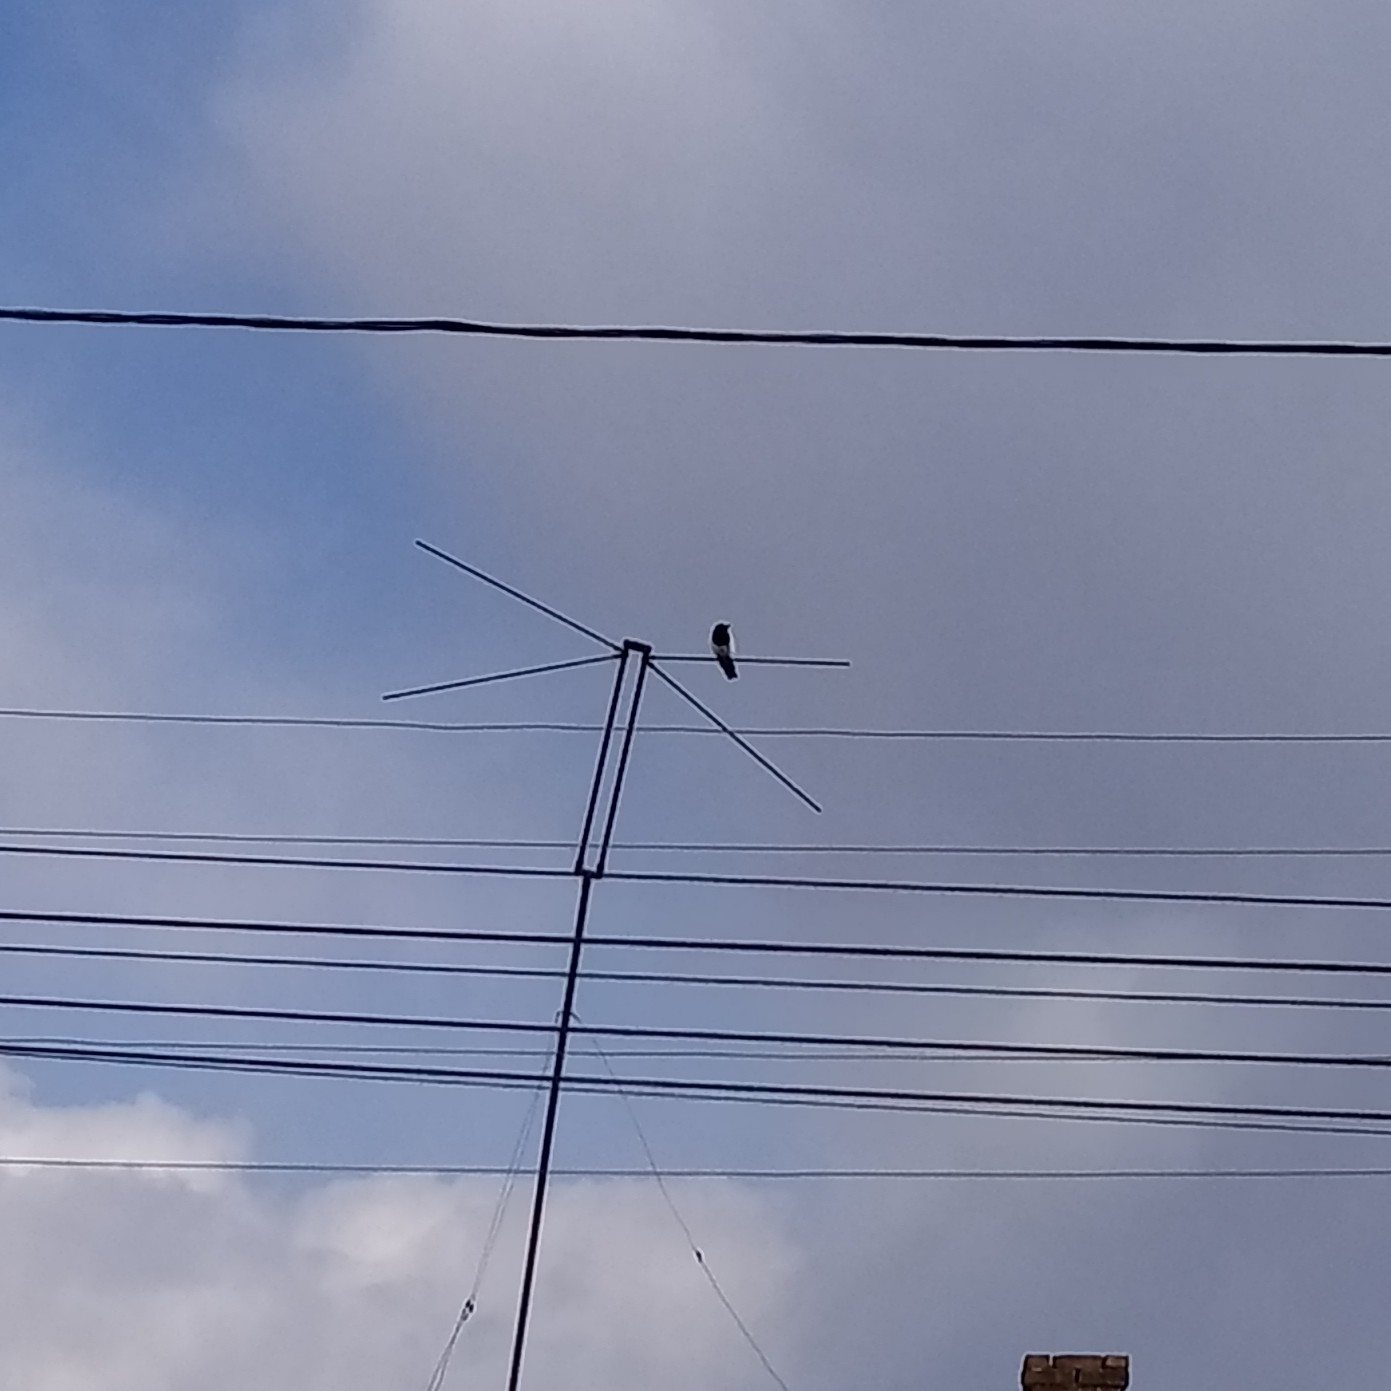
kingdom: Animalia
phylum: Chordata
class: Aves
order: Passeriformes
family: Corvidae
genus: Pica
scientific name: Pica pica
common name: Eurasian magpie
